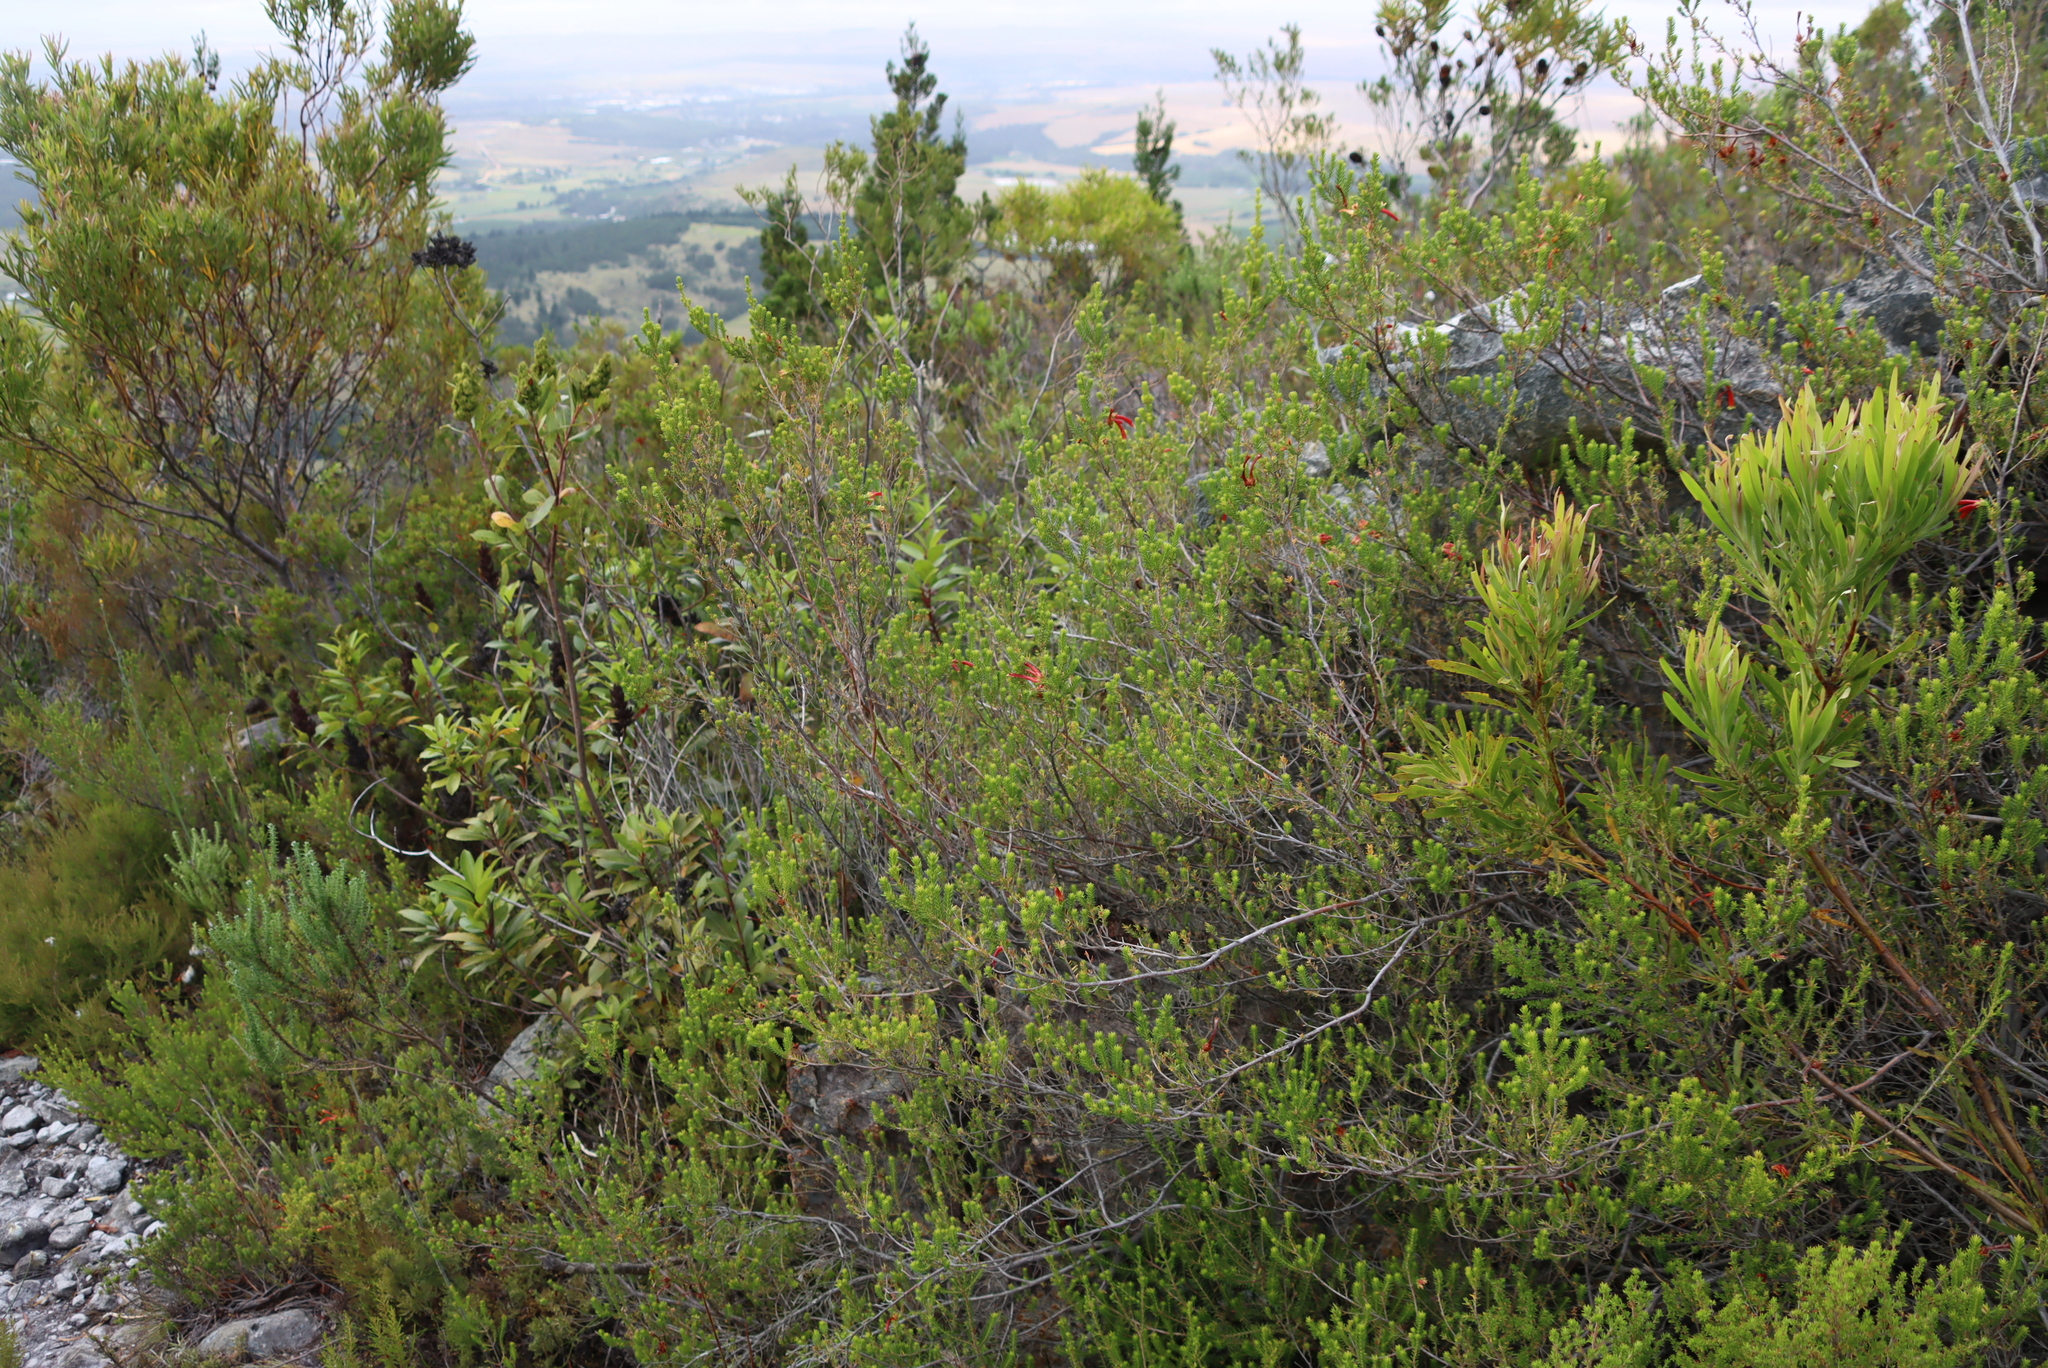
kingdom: Plantae
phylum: Tracheophyta
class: Magnoliopsida
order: Ericales
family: Ericaceae
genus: Erica
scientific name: Erica discolor
